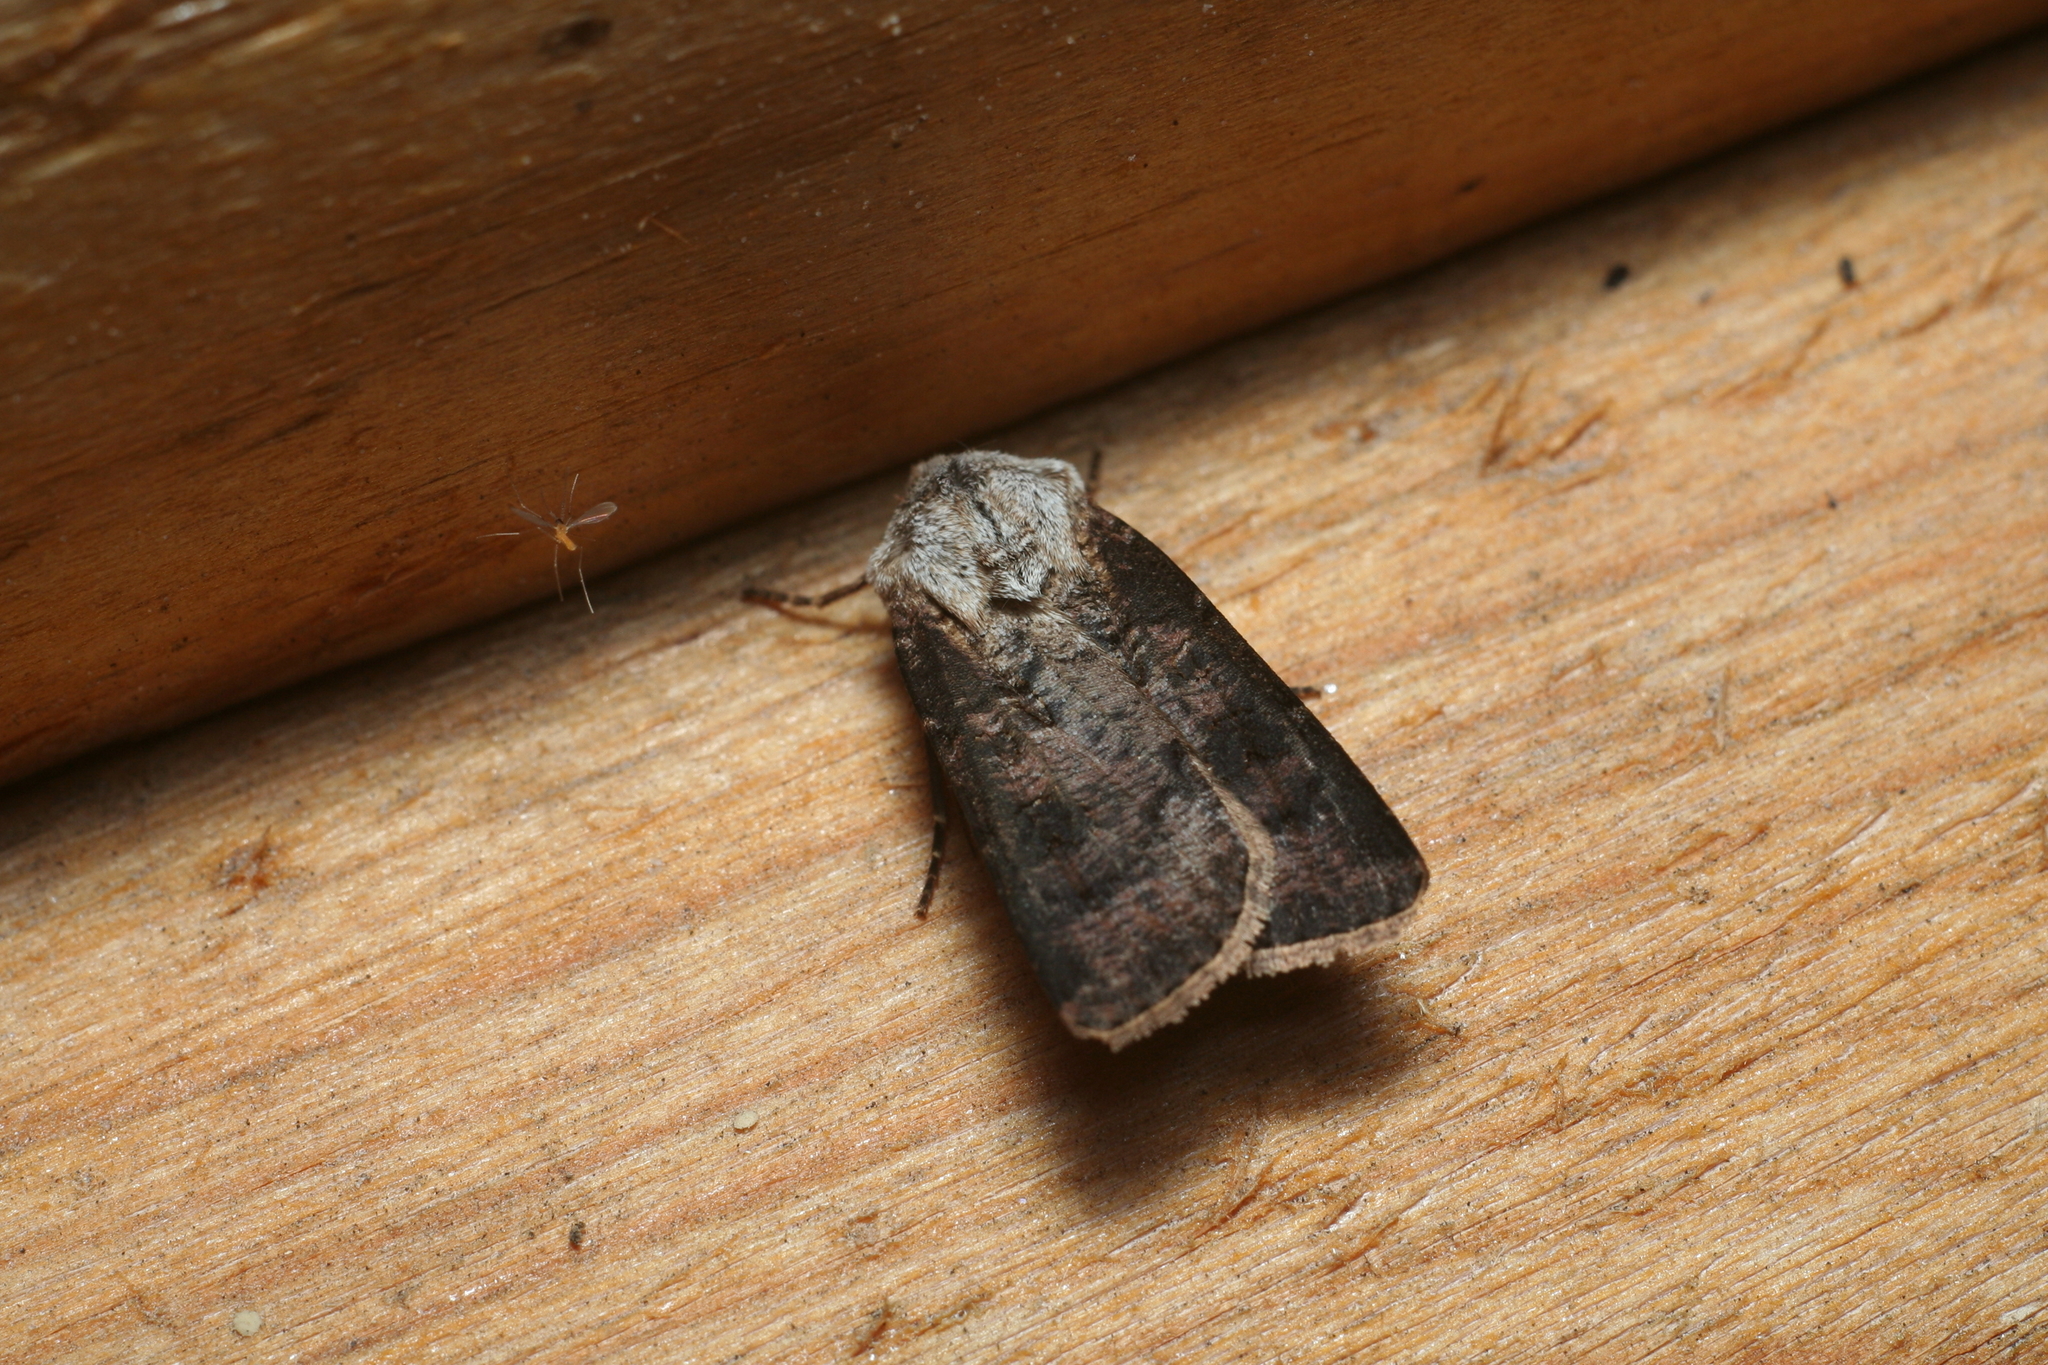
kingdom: Animalia
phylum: Arthropoda
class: Insecta
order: Lepidoptera
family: Noctuidae
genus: Agrotis
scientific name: Agrotis clavis
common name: Heart and club
